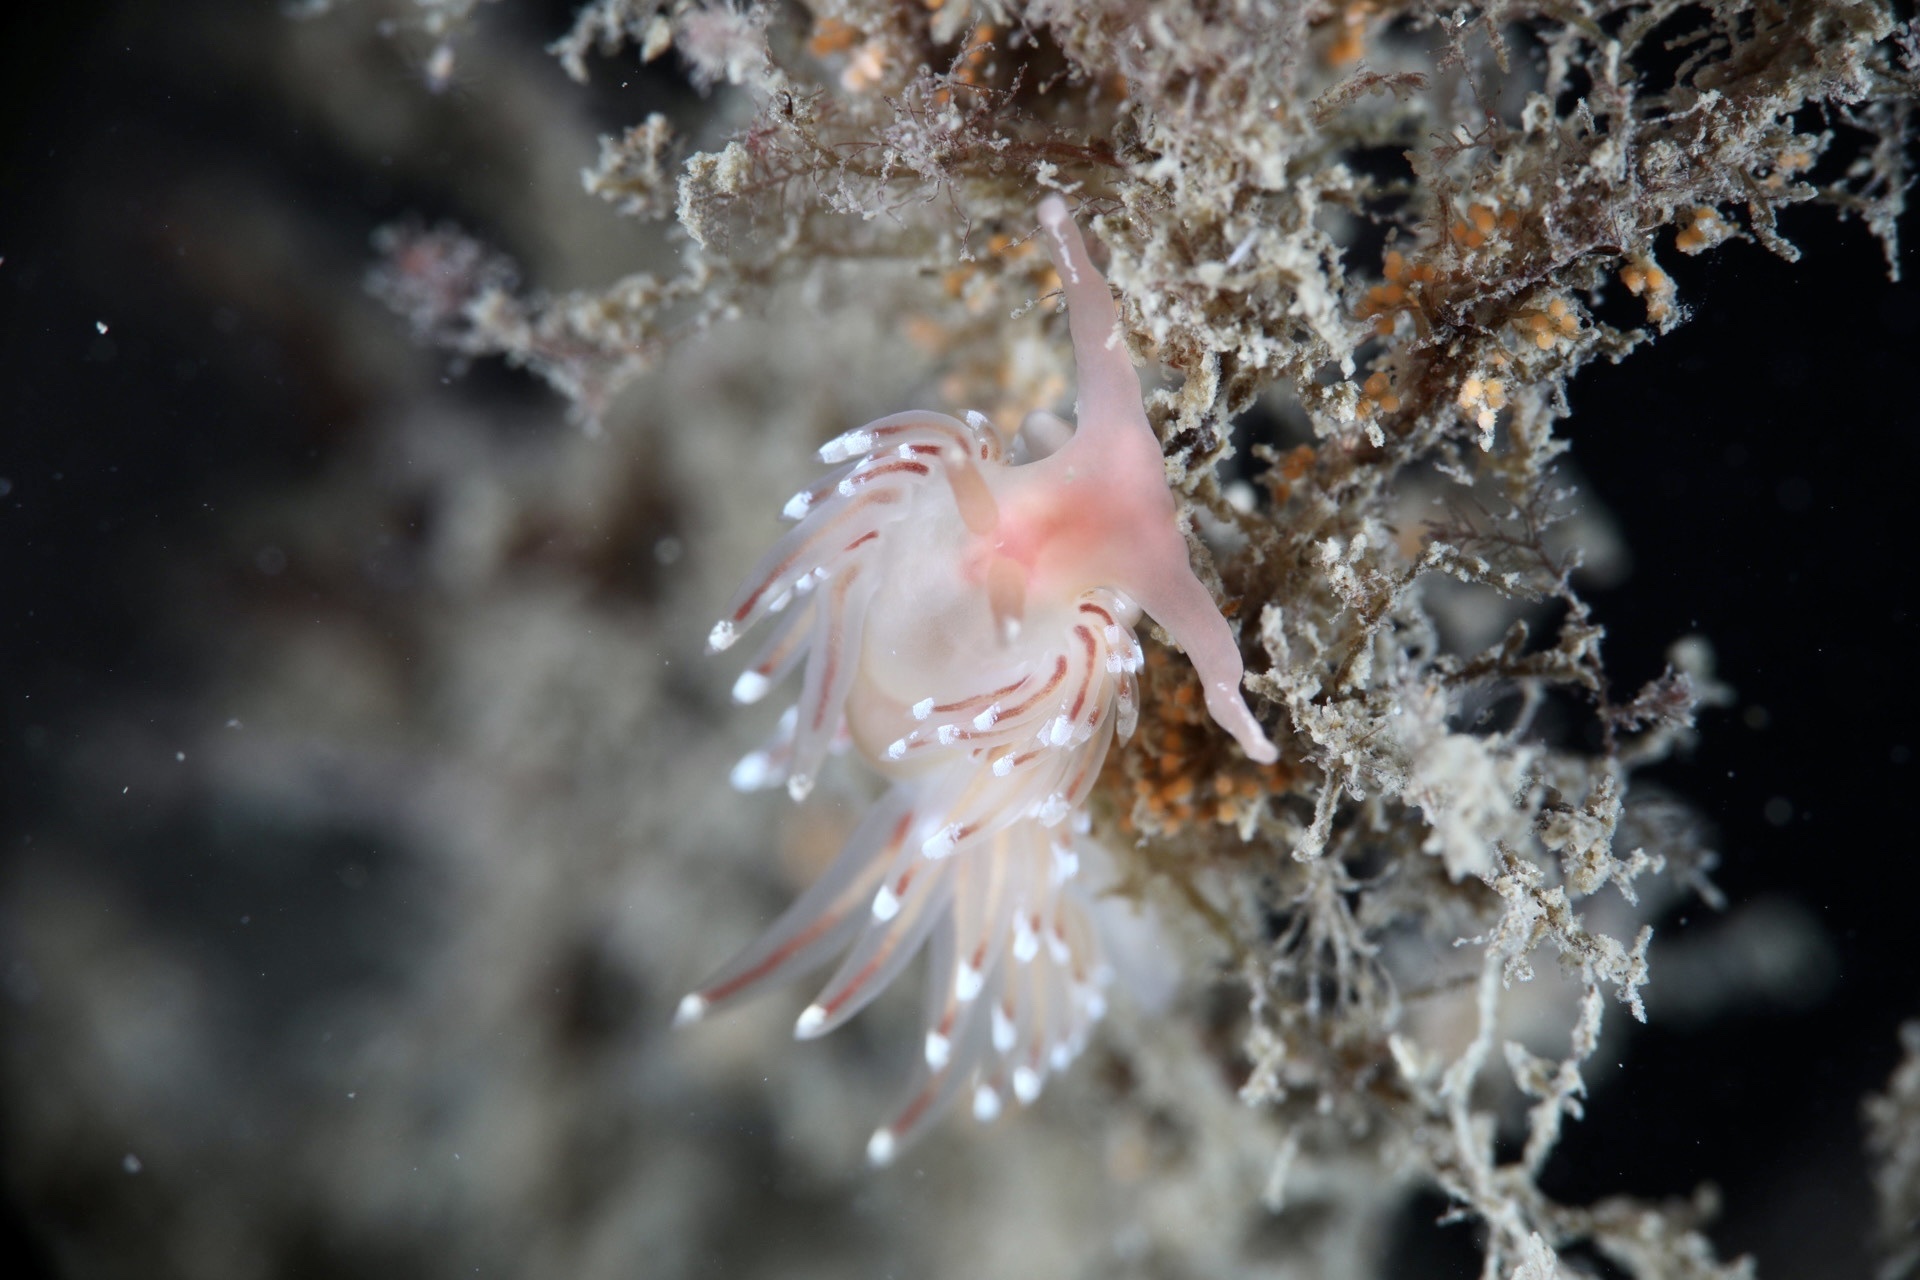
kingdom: Animalia
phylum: Mollusca
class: Gastropoda
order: Nudibranchia
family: Facelinidae
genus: Facelina
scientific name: Facelina bostoniensis
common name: Boston facelina
